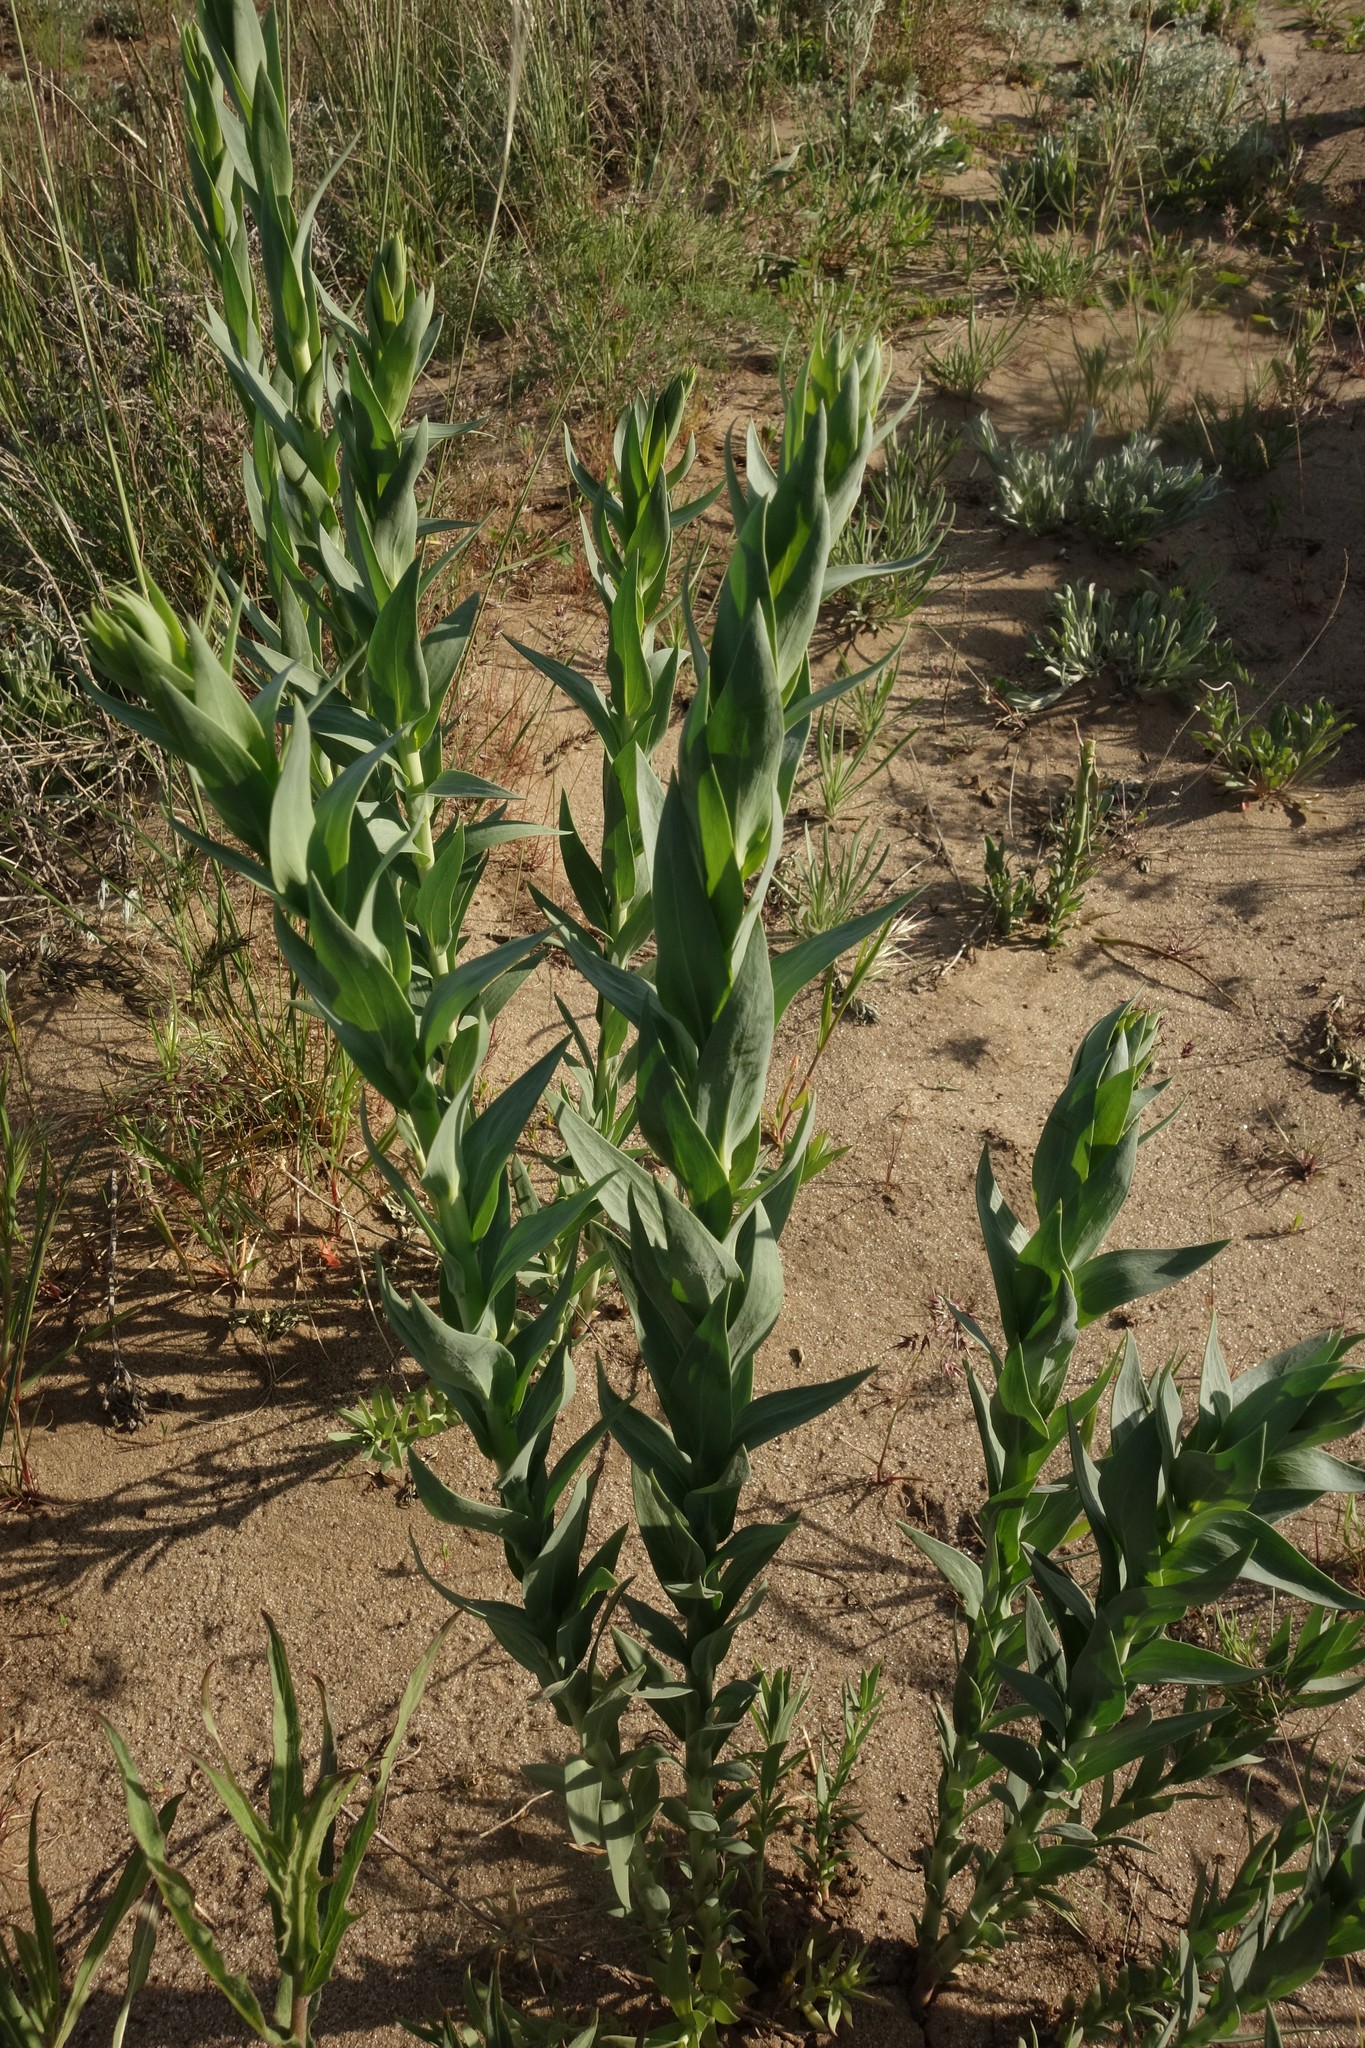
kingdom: Plantae
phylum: Tracheophyta
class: Magnoliopsida
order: Lamiales
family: Plantaginaceae
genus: Linaria
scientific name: Linaria genistifolia
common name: Broomleaf toadflax
